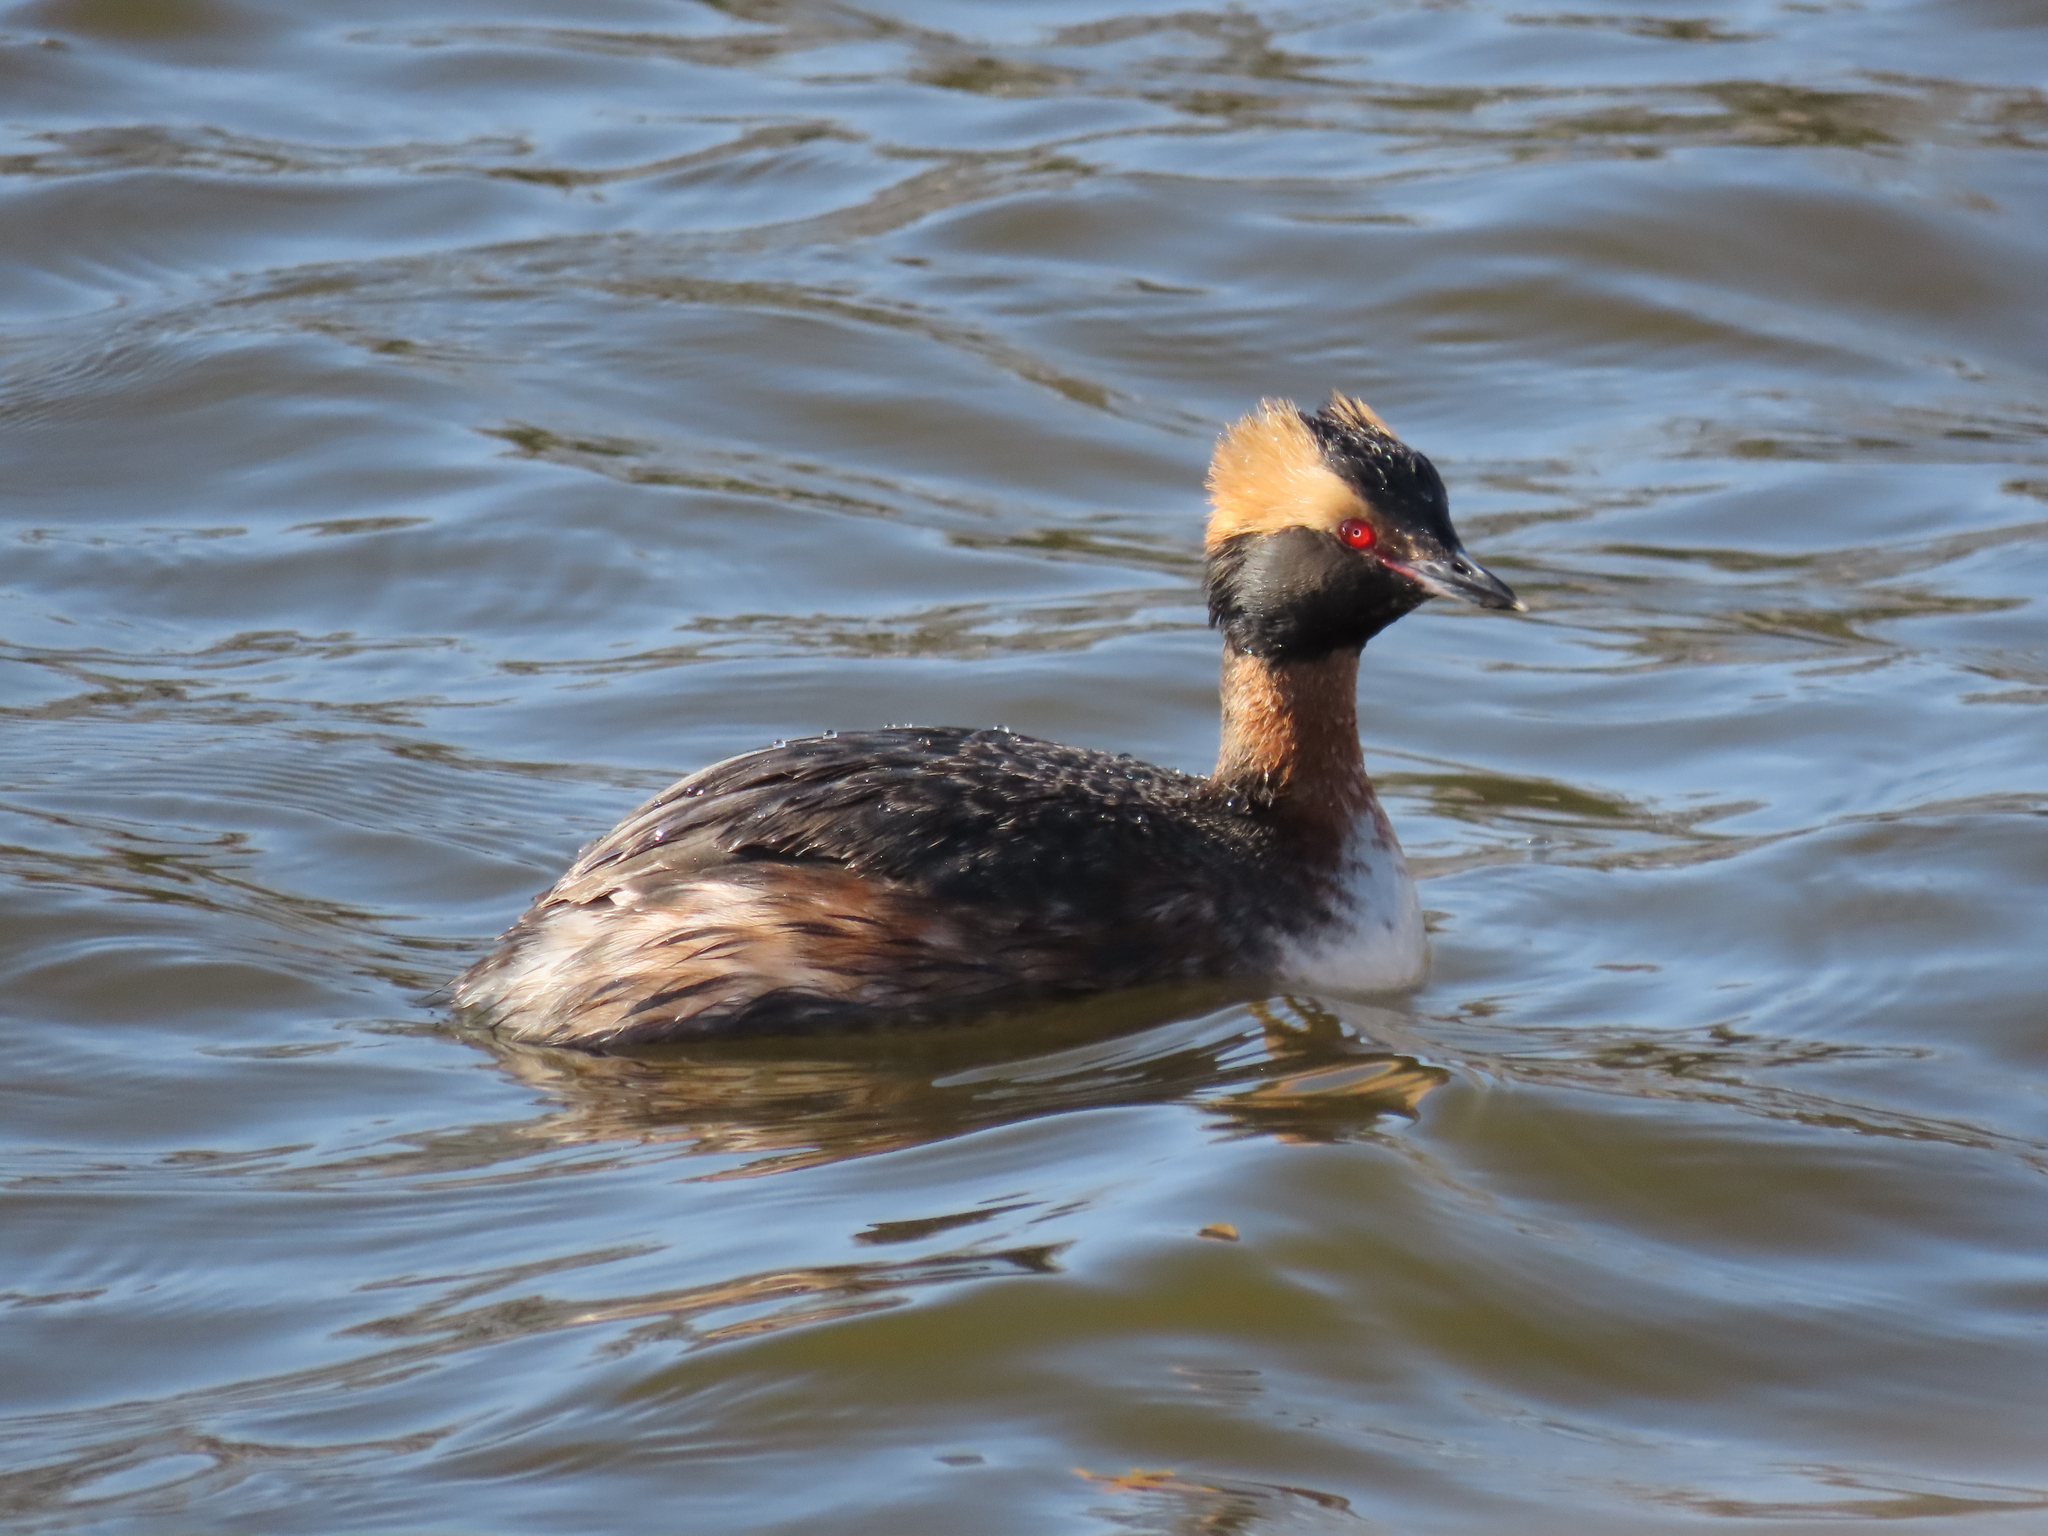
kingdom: Animalia
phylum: Chordata
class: Aves
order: Podicipediformes
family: Podicipedidae
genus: Podiceps
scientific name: Podiceps auritus
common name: Horned grebe
